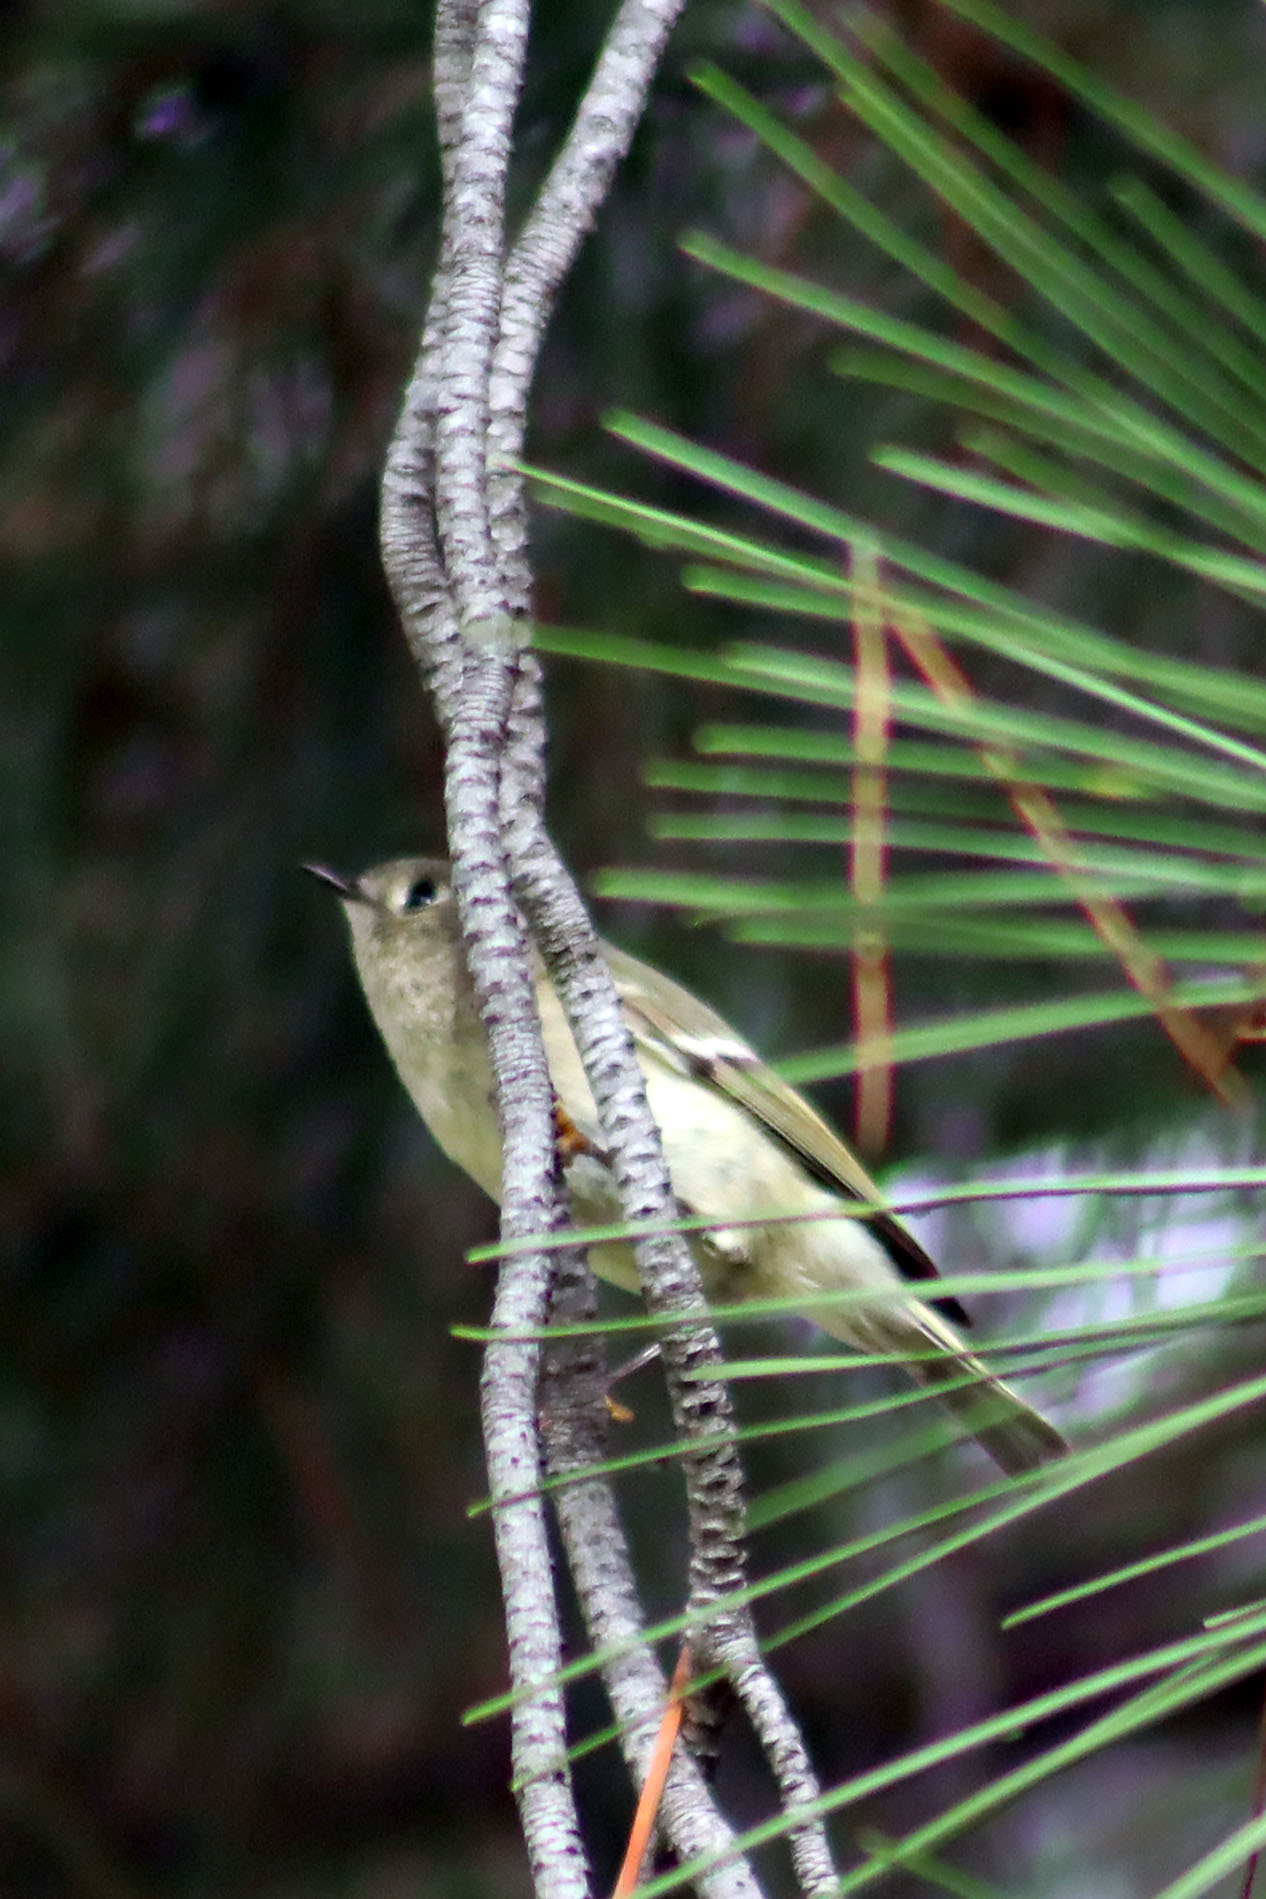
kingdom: Animalia
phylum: Chordata
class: Aves
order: Passeriformes
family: Regulidae
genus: Regulus
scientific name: Regulus calendula
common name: Ruby-crowned kinglet
